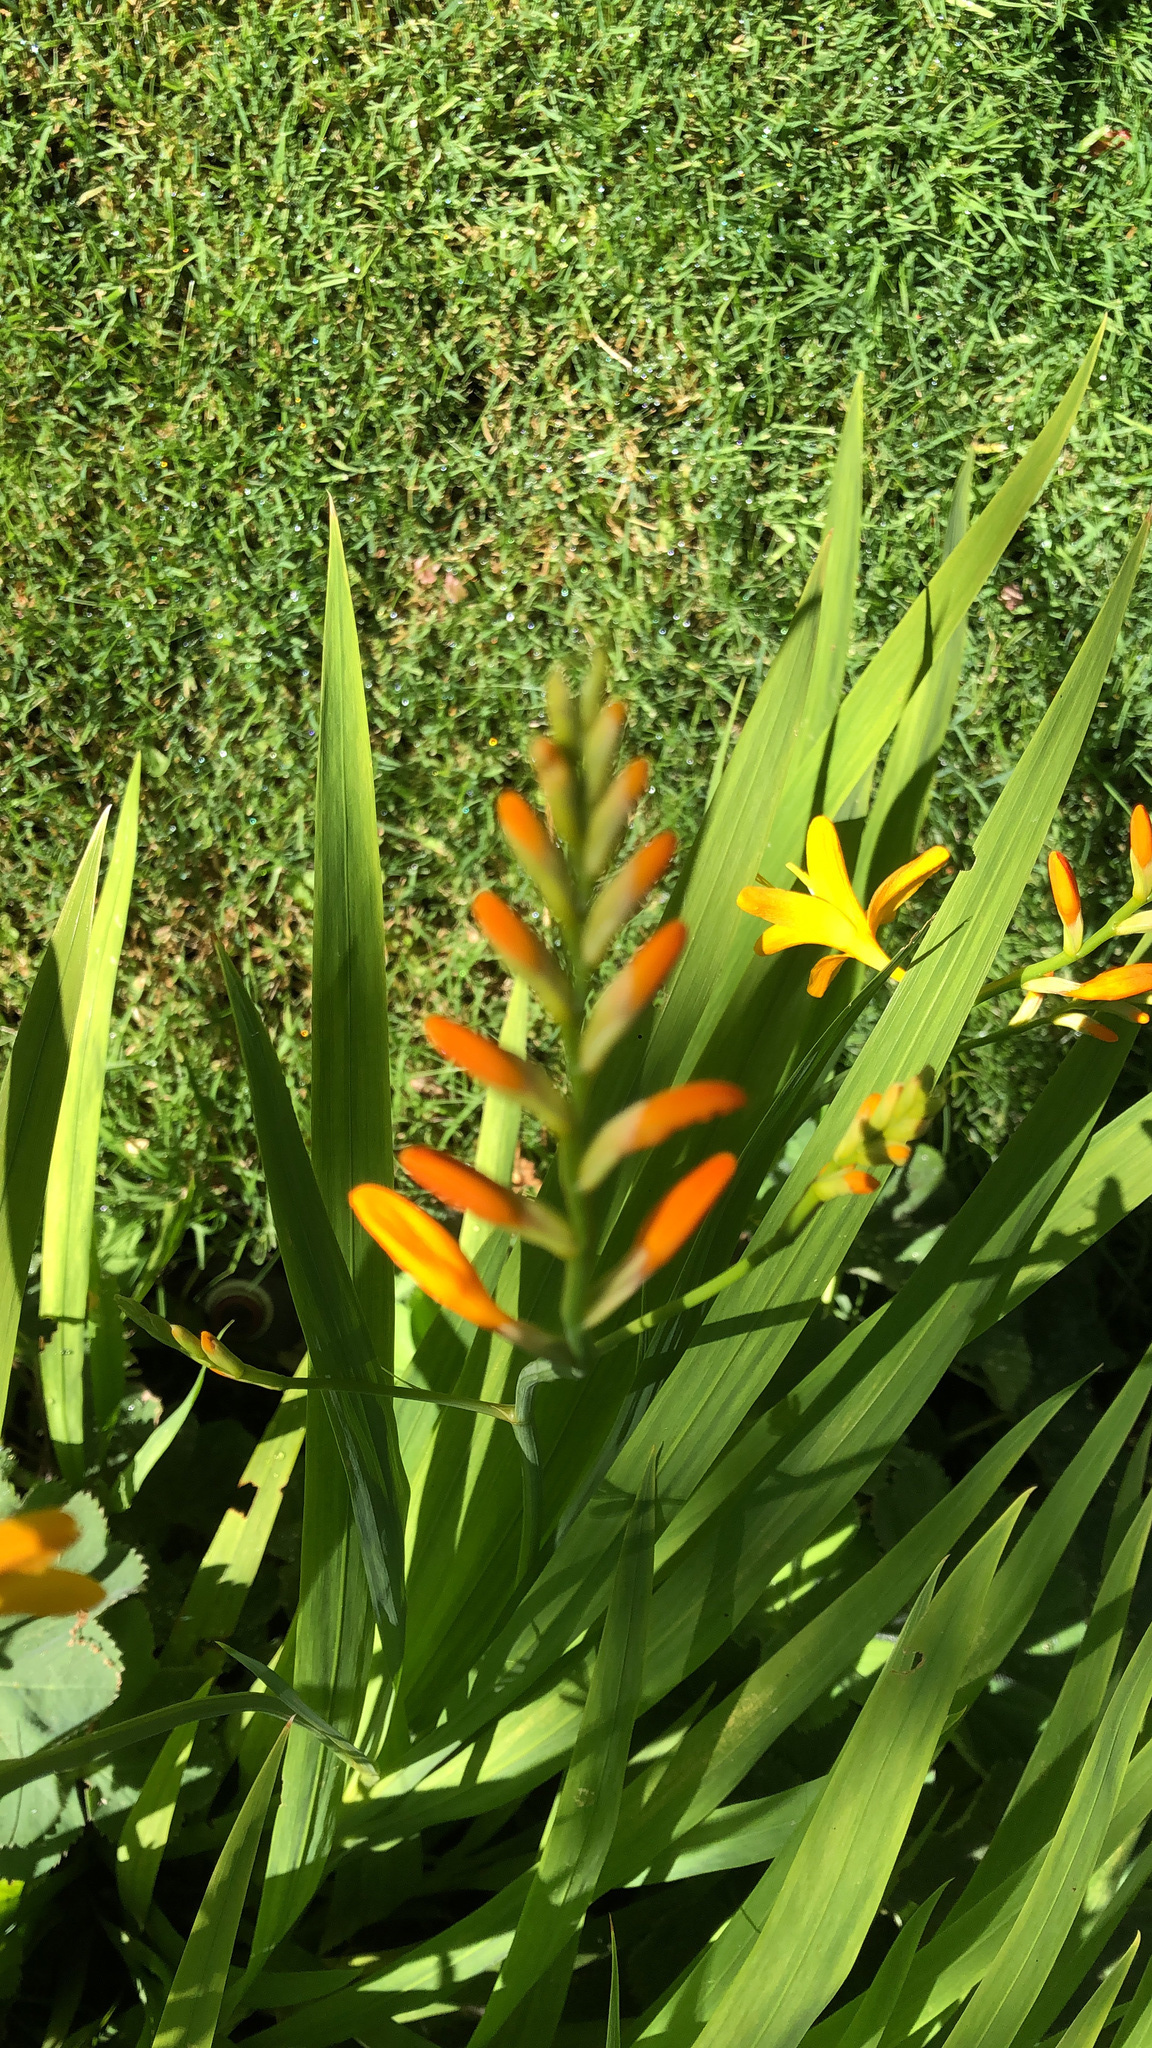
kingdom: Plantae
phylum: Tracheophyta
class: Liliopsida
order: Asparagales
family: Iridaceae
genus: Crocosmia
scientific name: Crocosmia crocosmiiflora
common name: Montbretia
